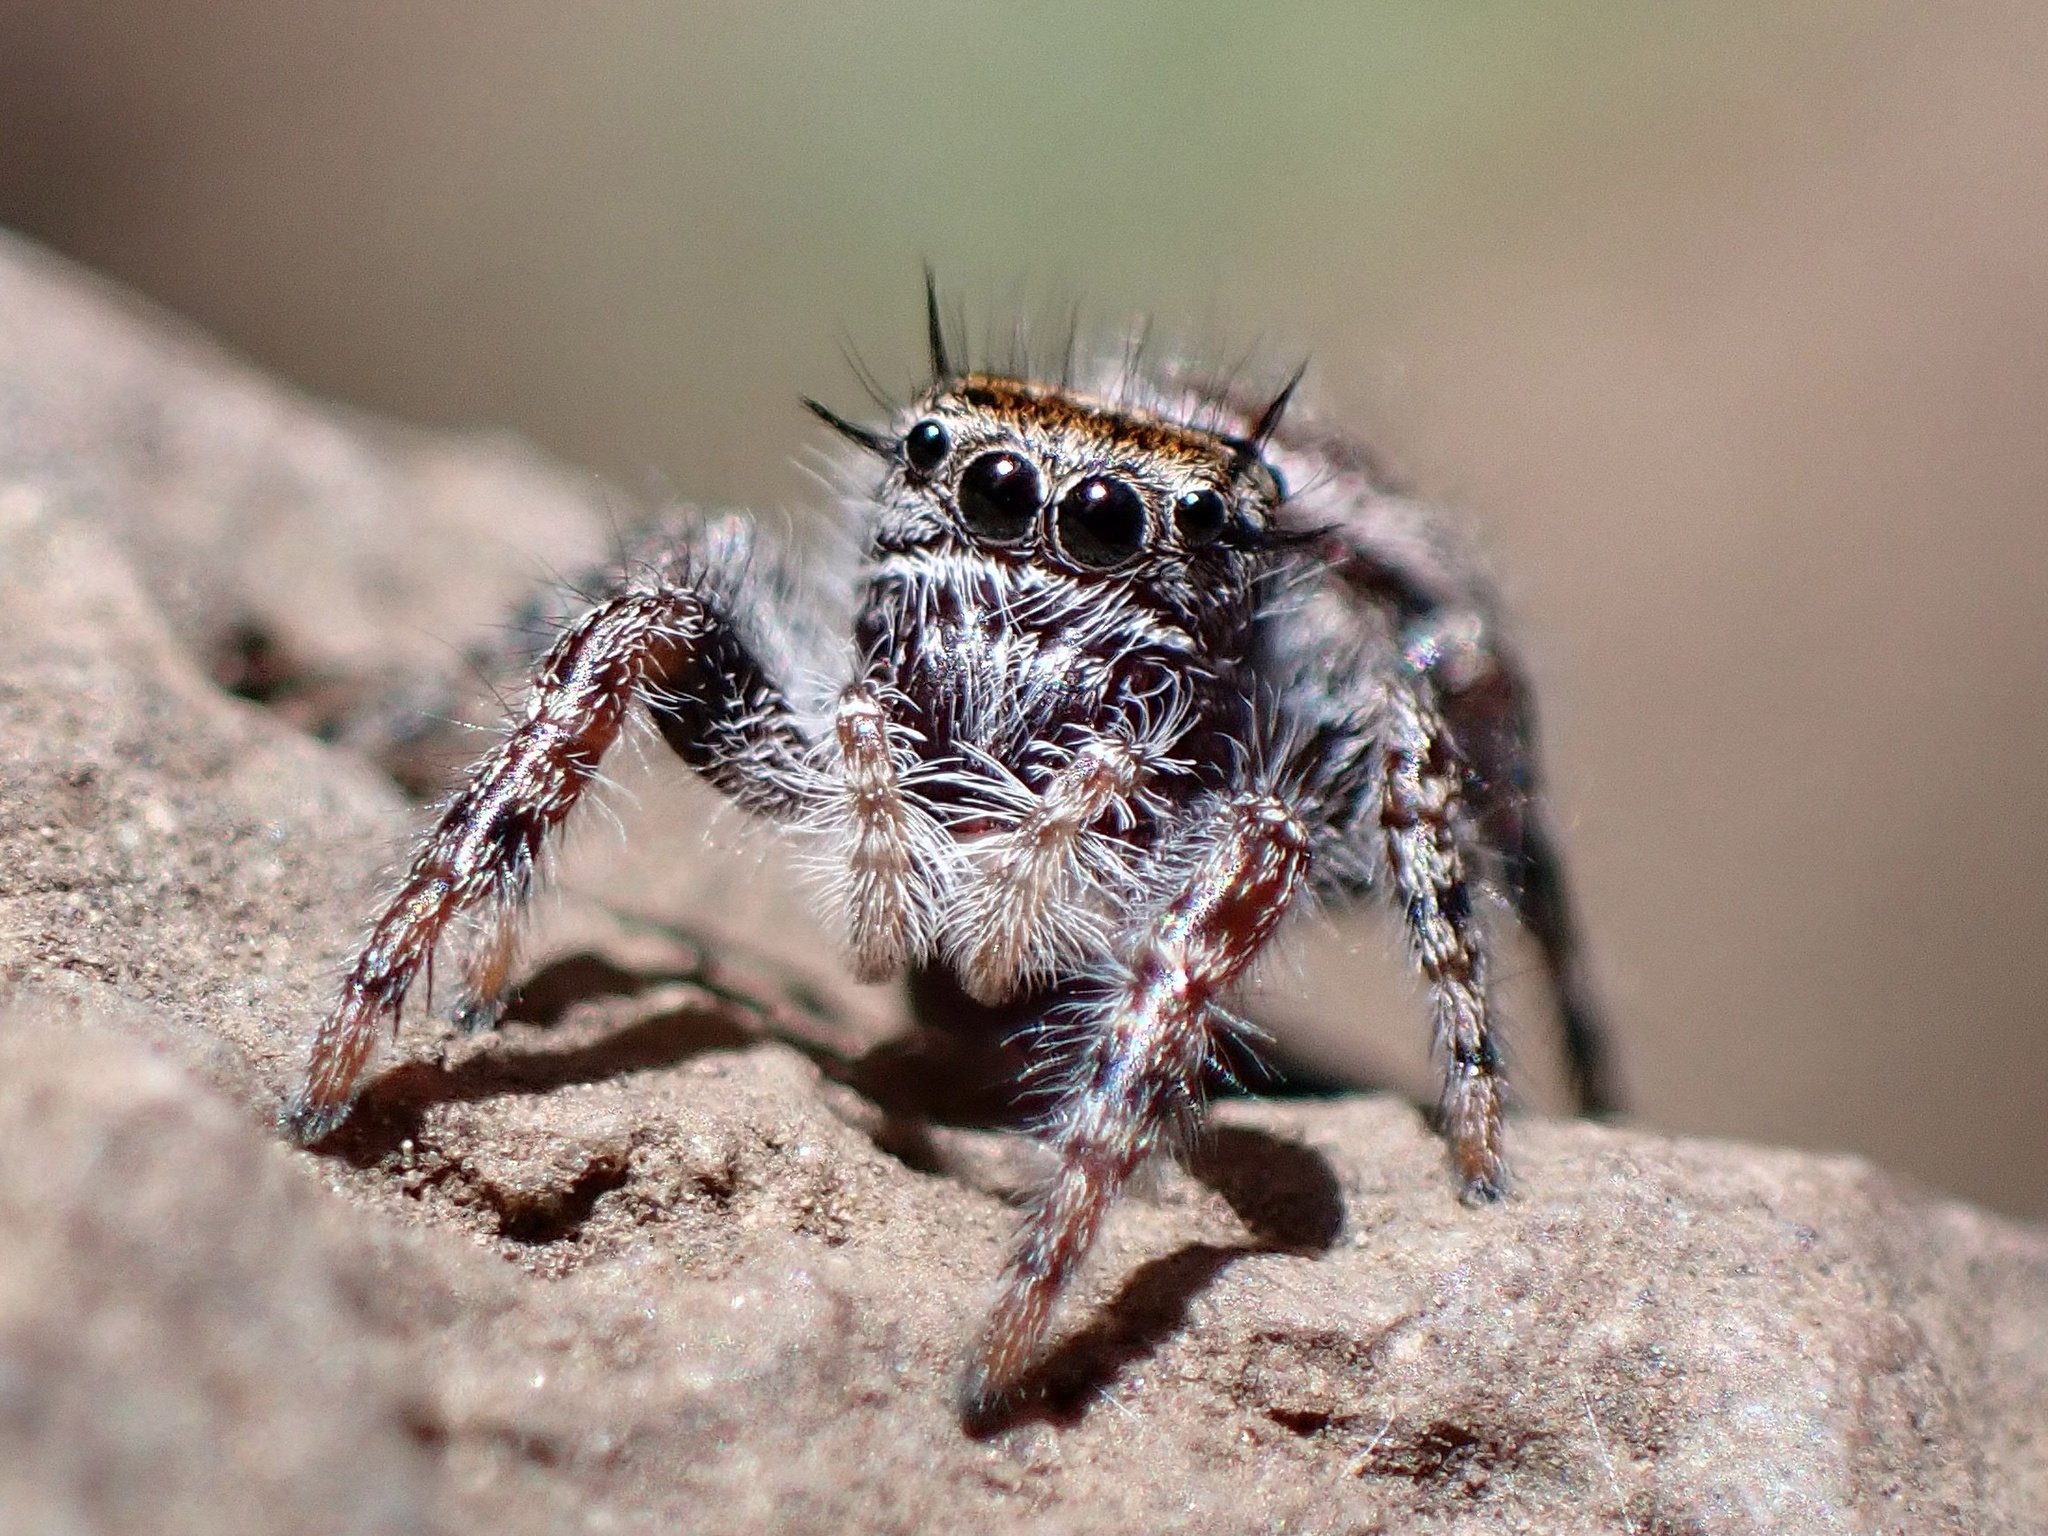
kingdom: Animalia
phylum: Arthropoda
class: Arachnida
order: Araneae
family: Salticidae
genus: Phidippus
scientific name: Phidippus comatus
